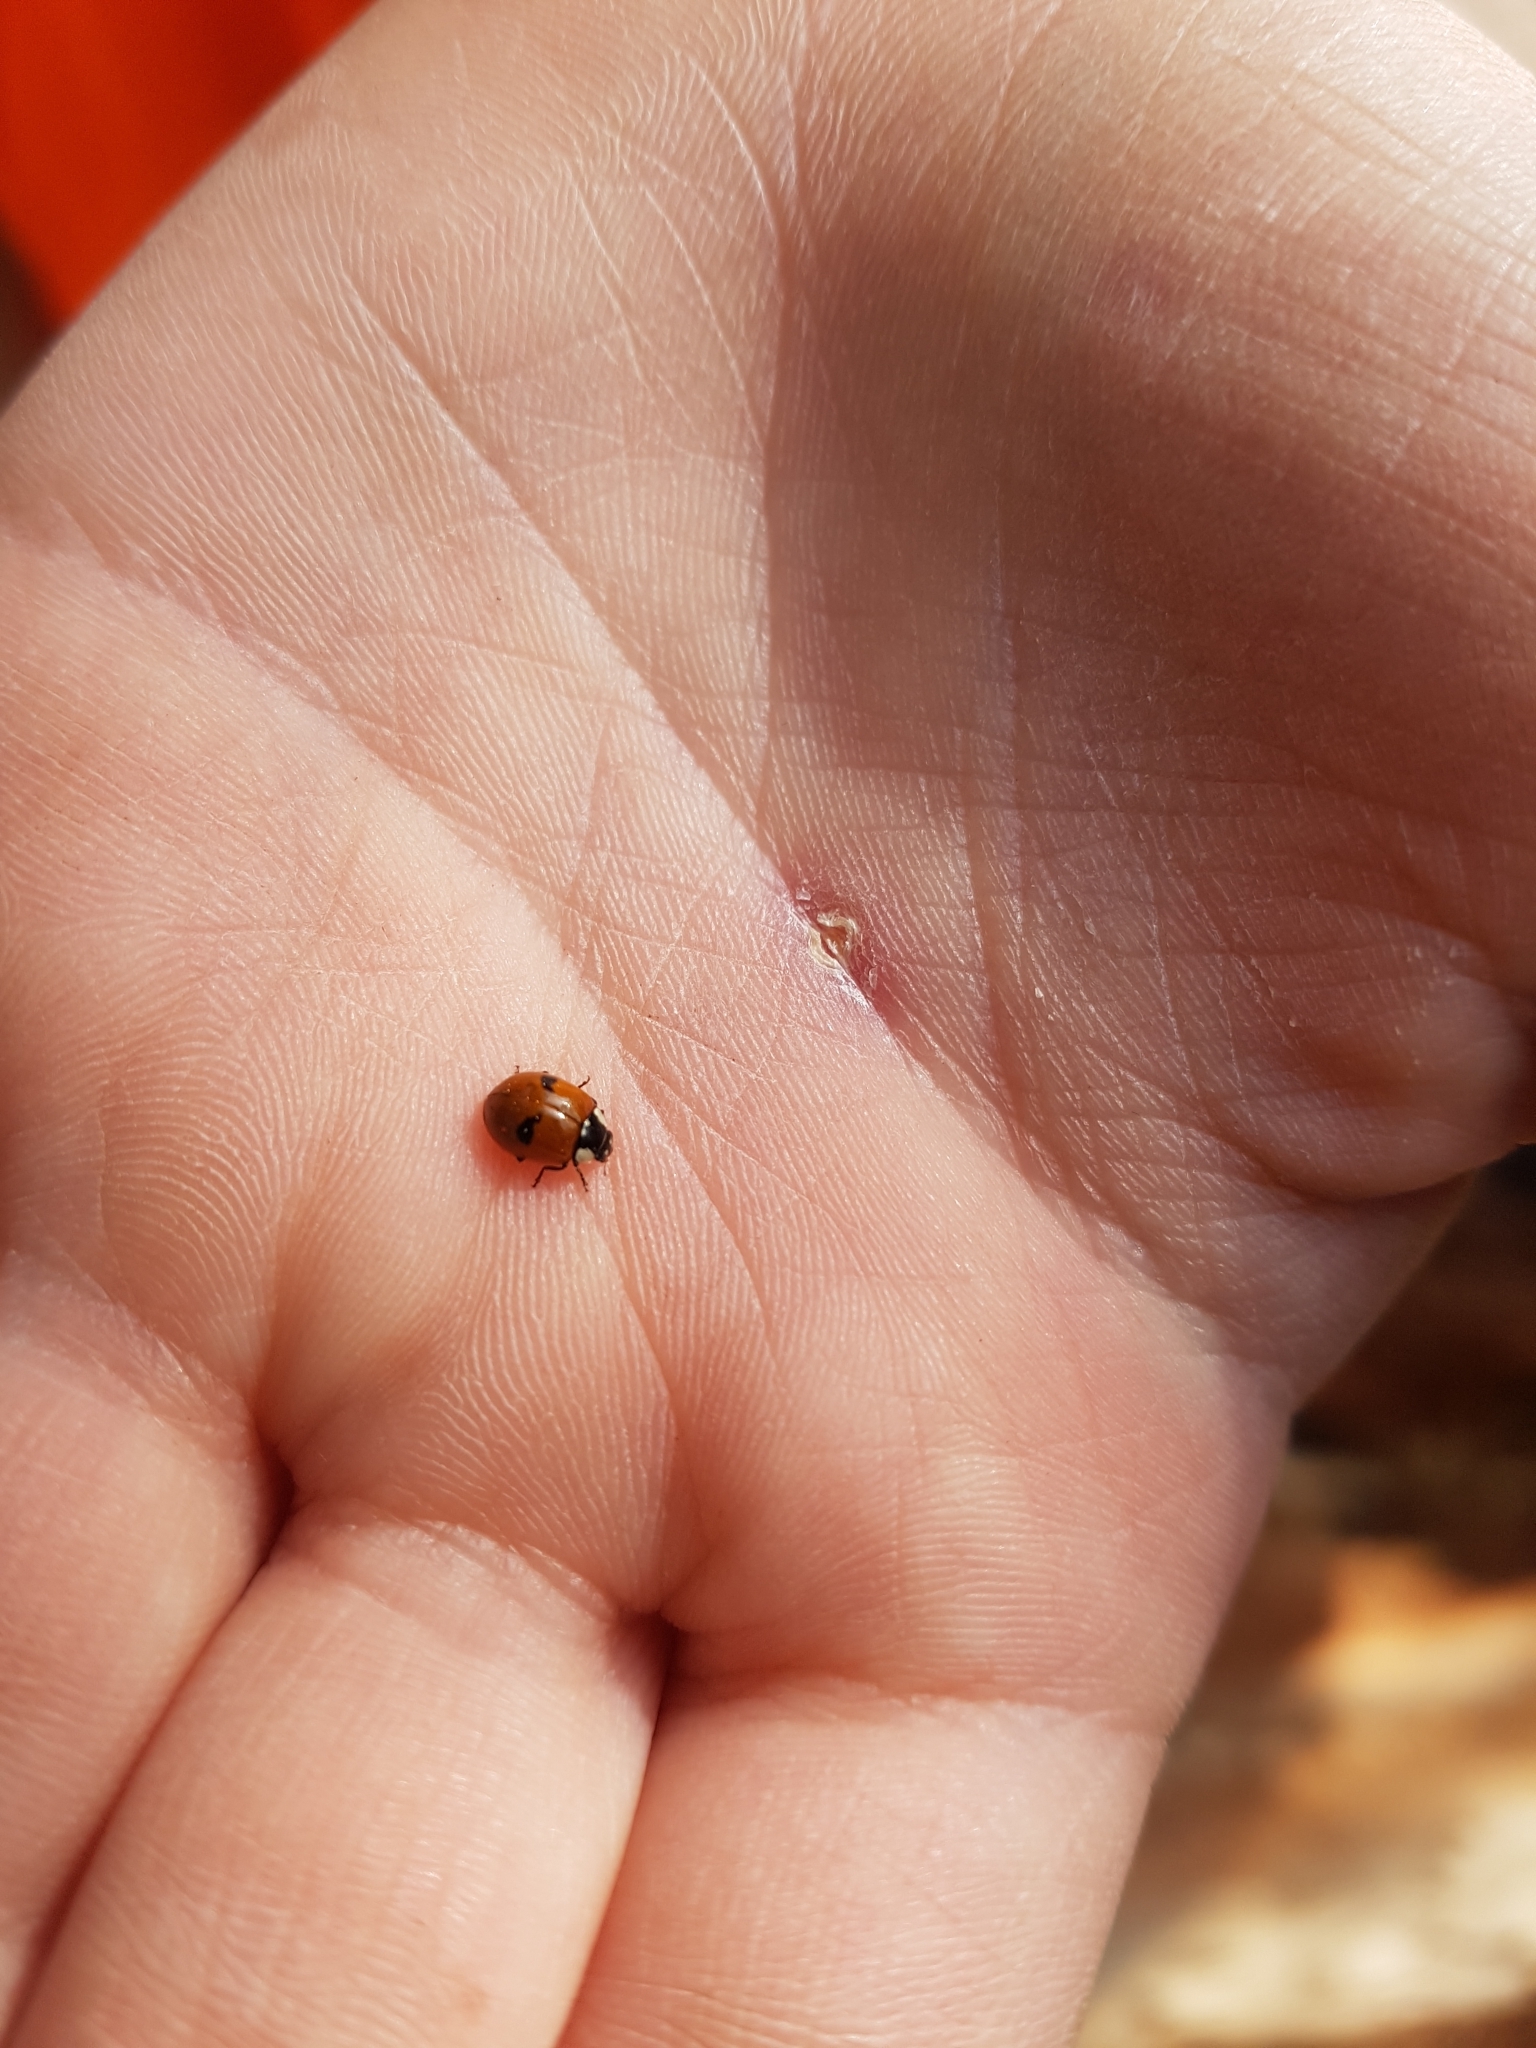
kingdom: Animalia
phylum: Arthropoda
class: Insecta
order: Coleoptera
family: Coccinellidae
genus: Adalia
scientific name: Adalia bipunctata
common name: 2-spot ladybird
